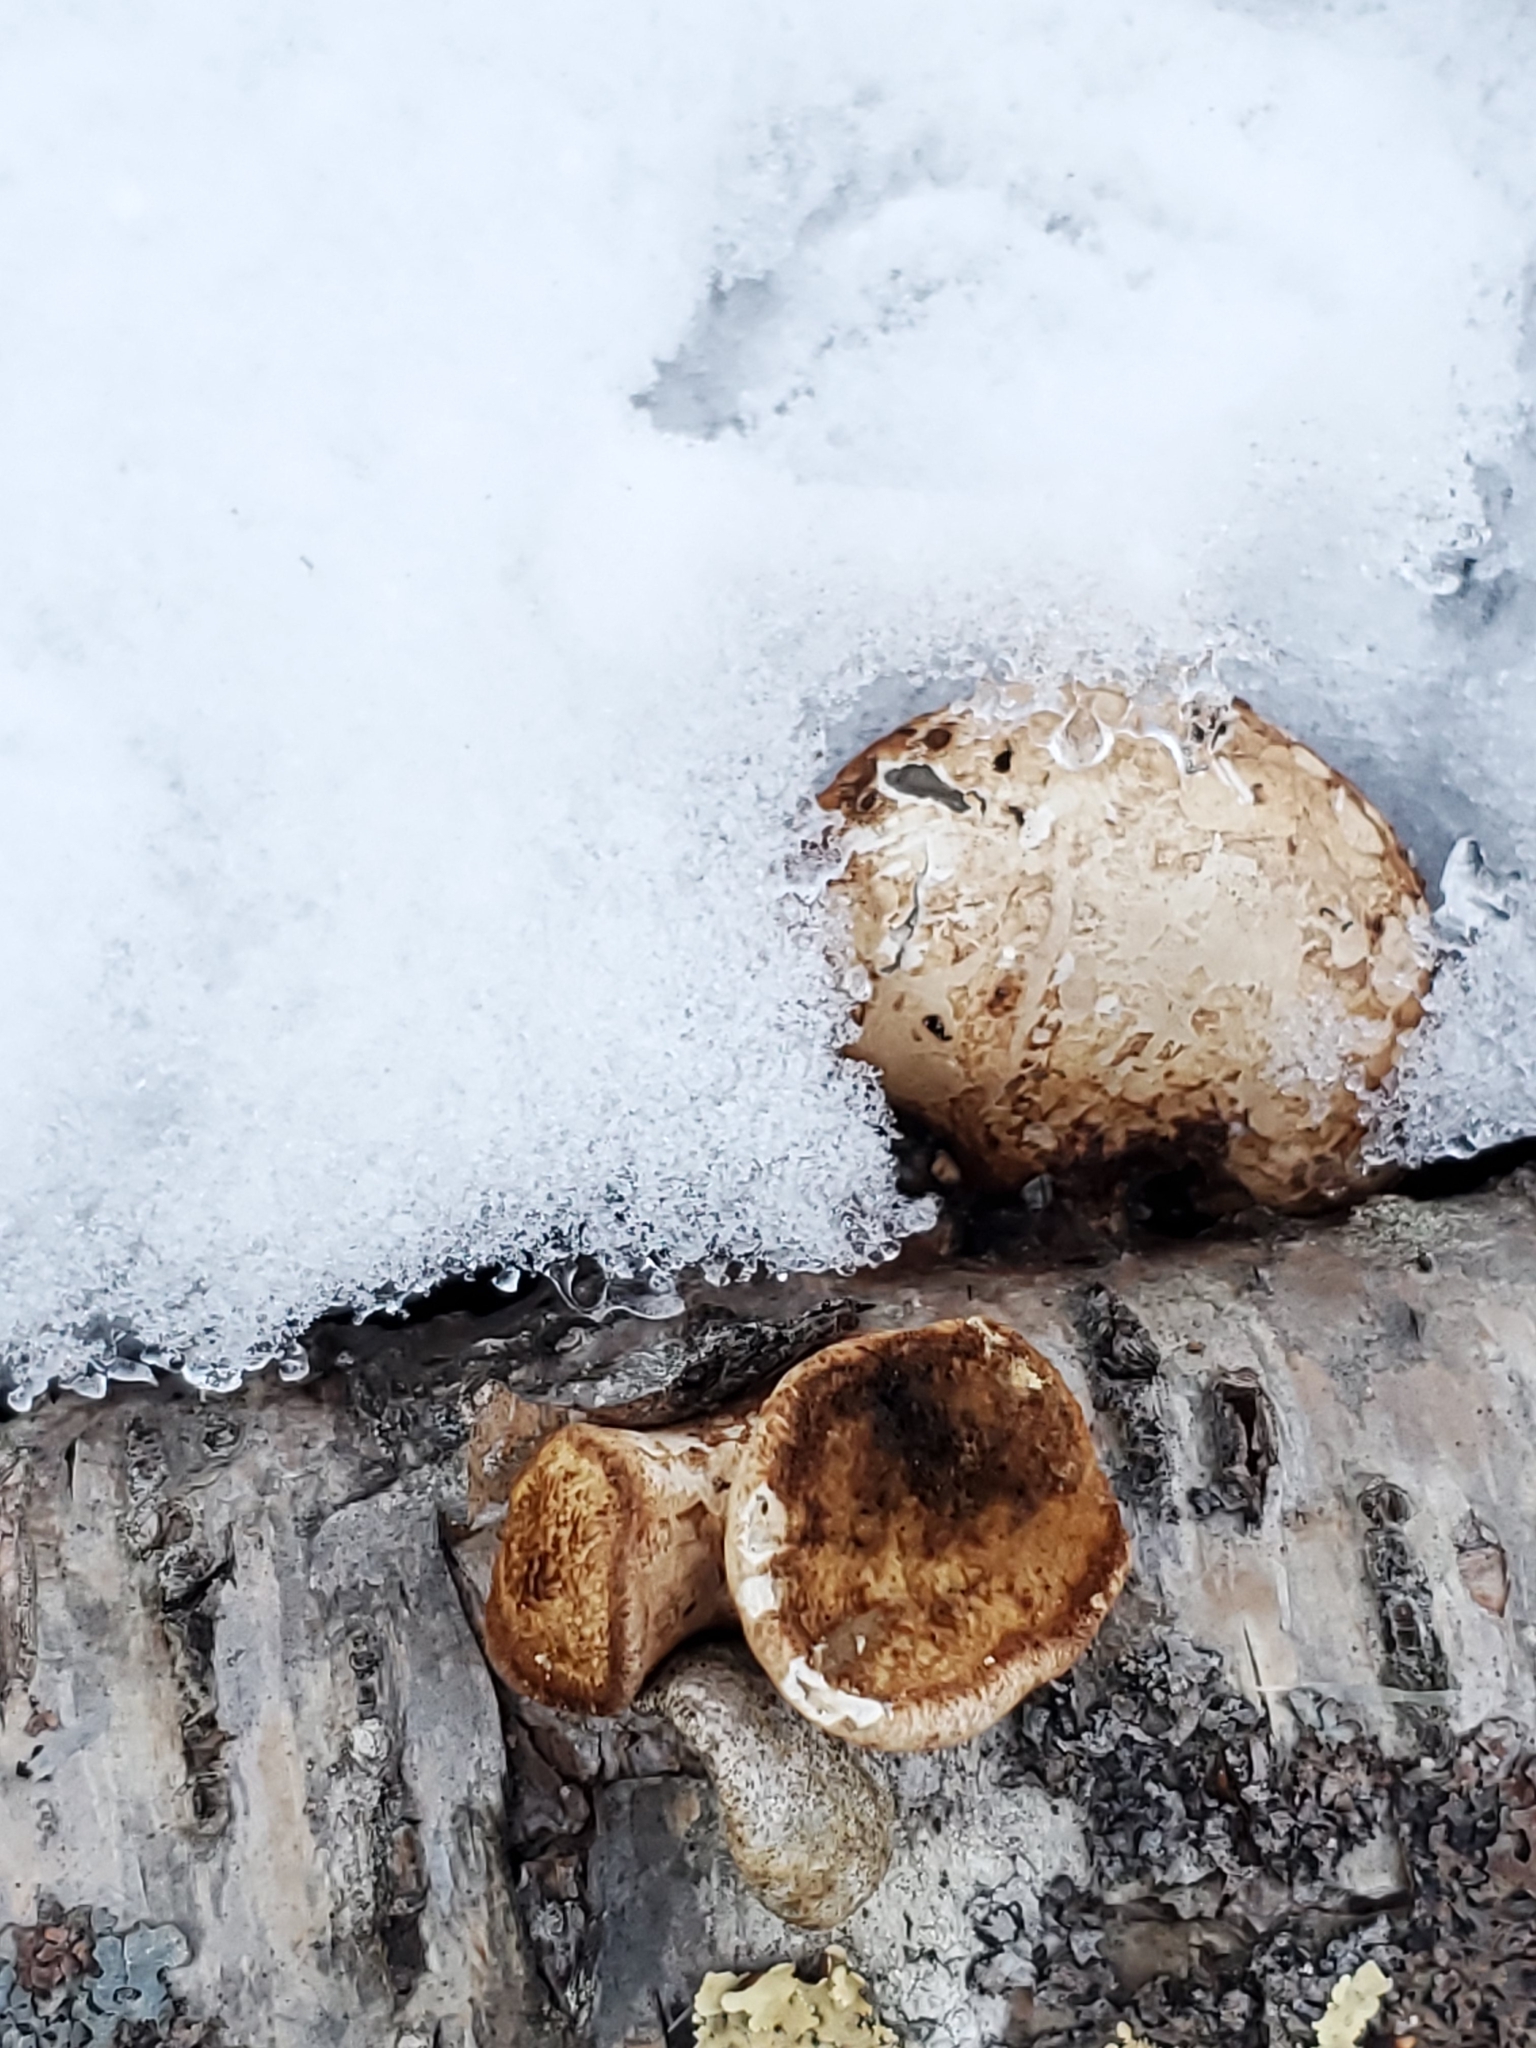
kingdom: Fungi
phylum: Basidiomycota
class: Agaricomycetes
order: Polyporales
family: Fomitopsidaceae
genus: Fomitopsis
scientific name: Fomitopsis betulina
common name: Birch polypore
